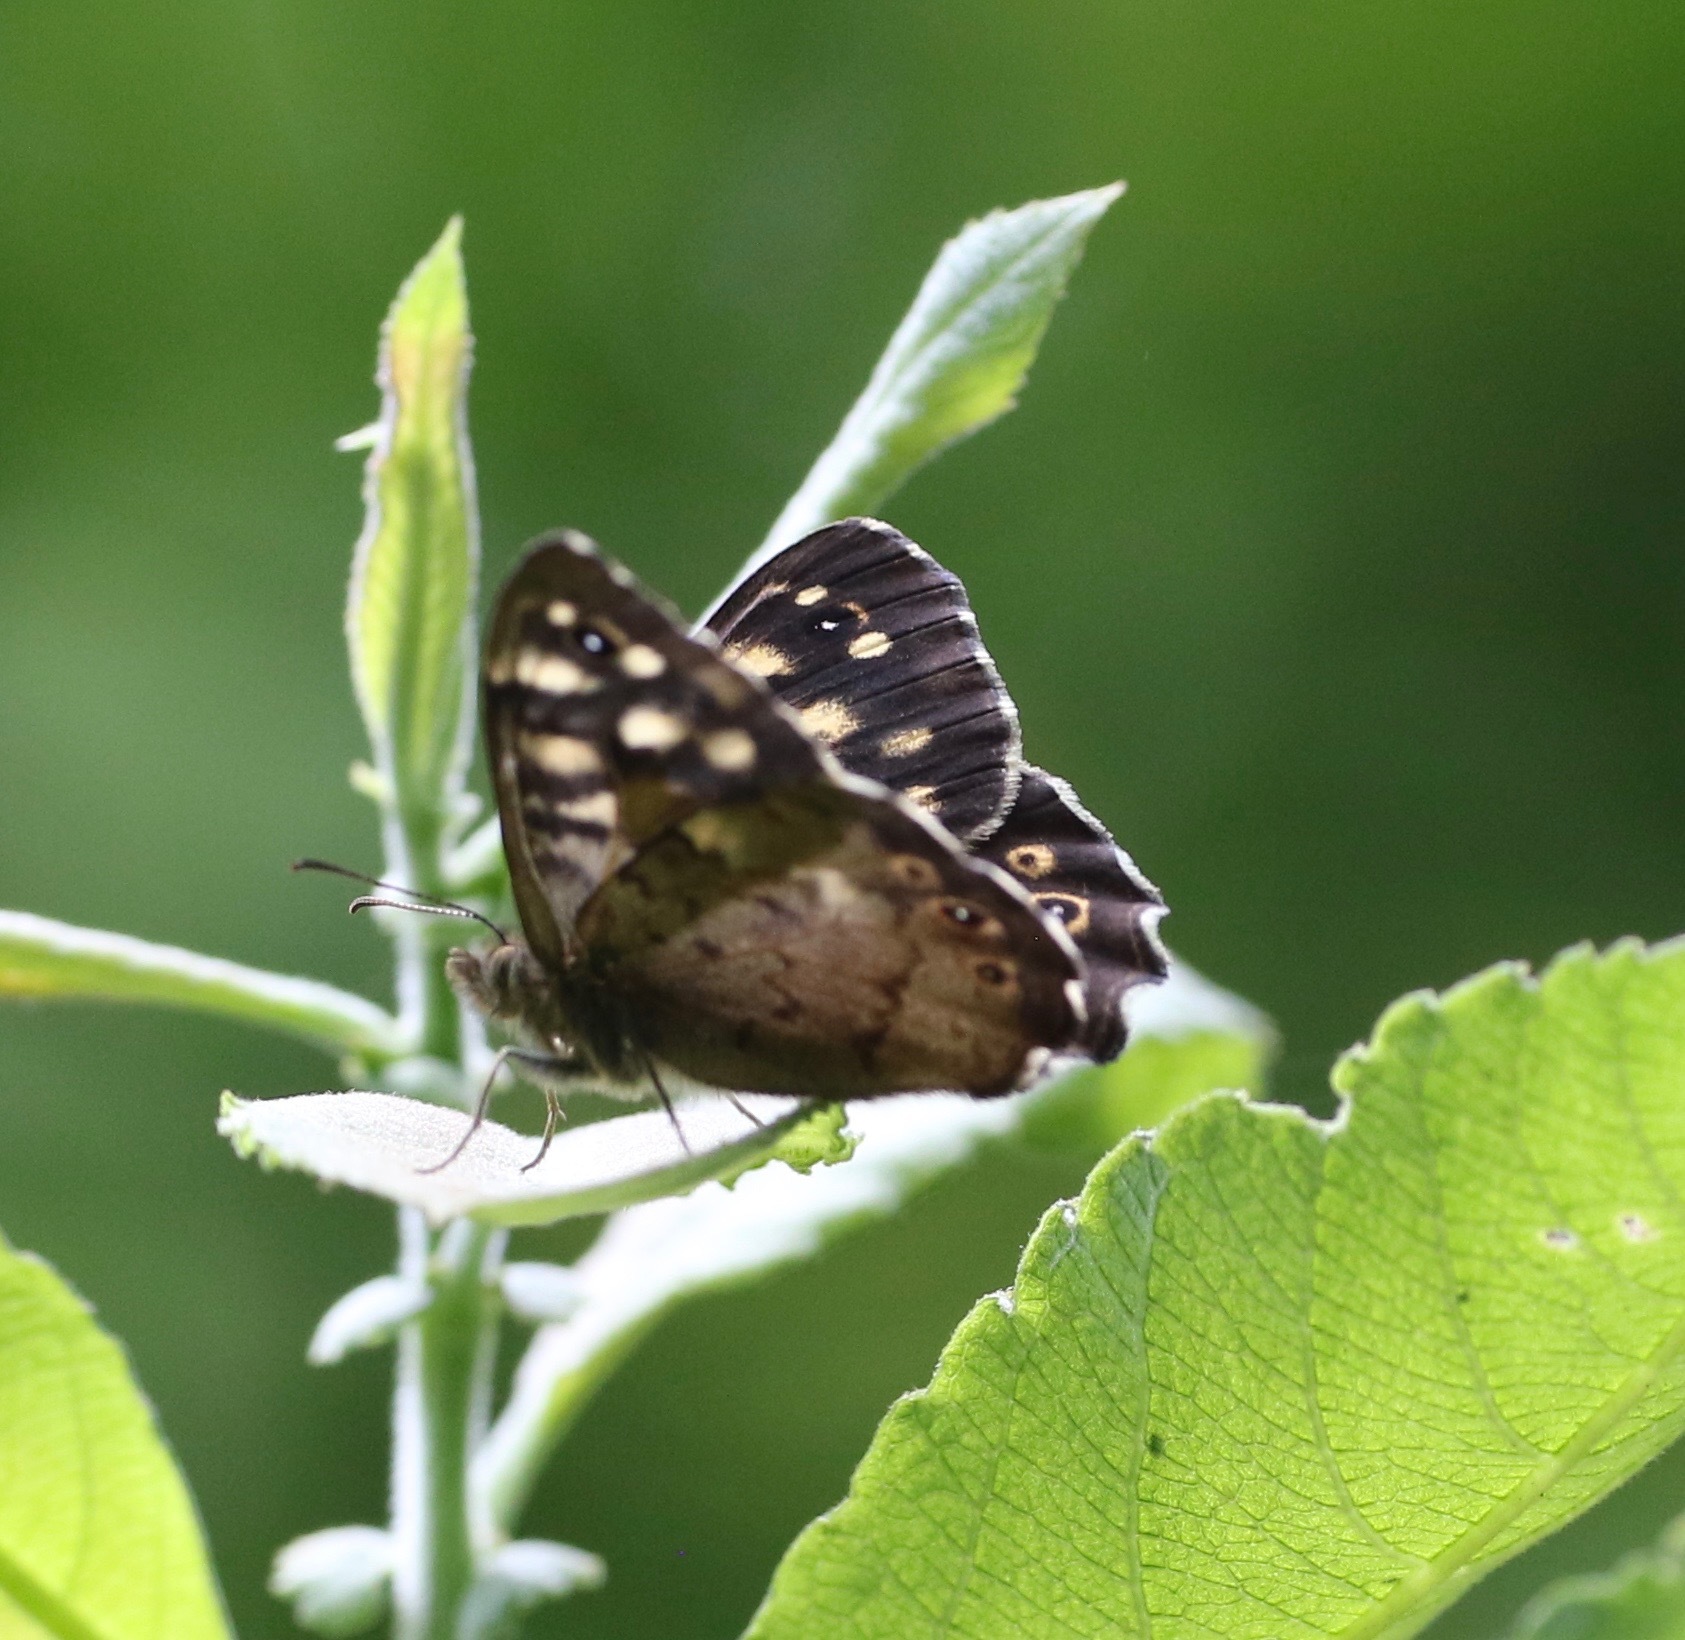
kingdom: Animalia
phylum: Arthropoda
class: Insecta
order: Lepidoptera
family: Nymphalidae
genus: Pararge
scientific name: Pararge aegeria
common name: Speckled wood
